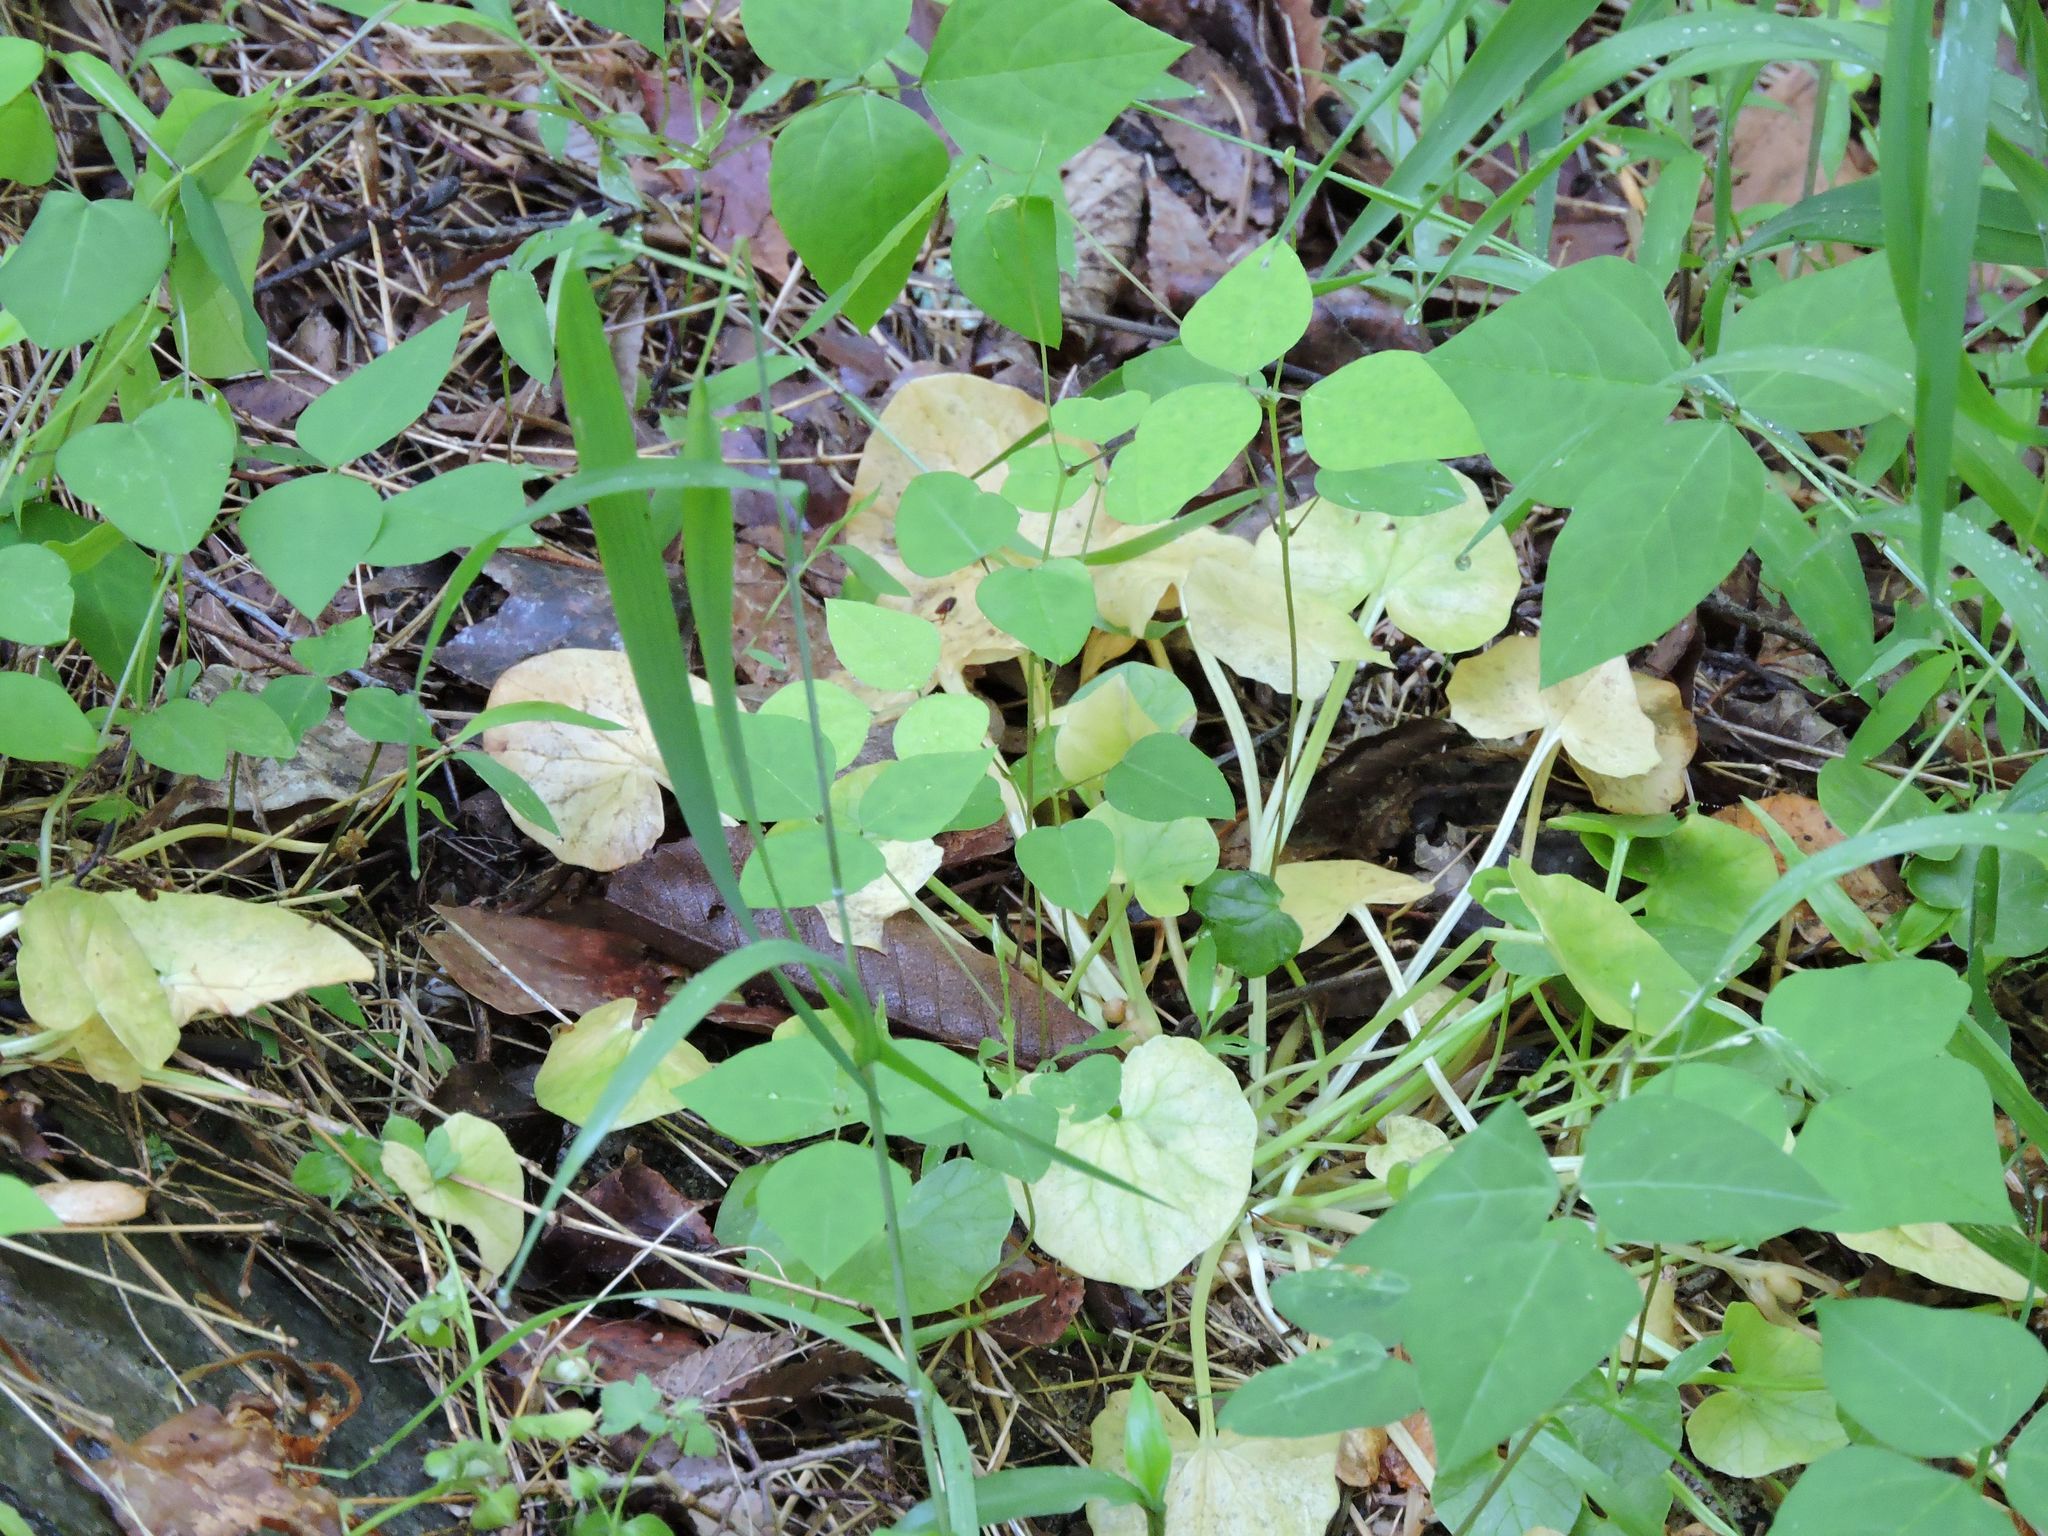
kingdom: Plantae
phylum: Tracheophyta
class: Magnoliopsida
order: Ranunculales
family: Ranunculaceae
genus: Ficaria
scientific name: Ficaria verna
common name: Lesser celandine
